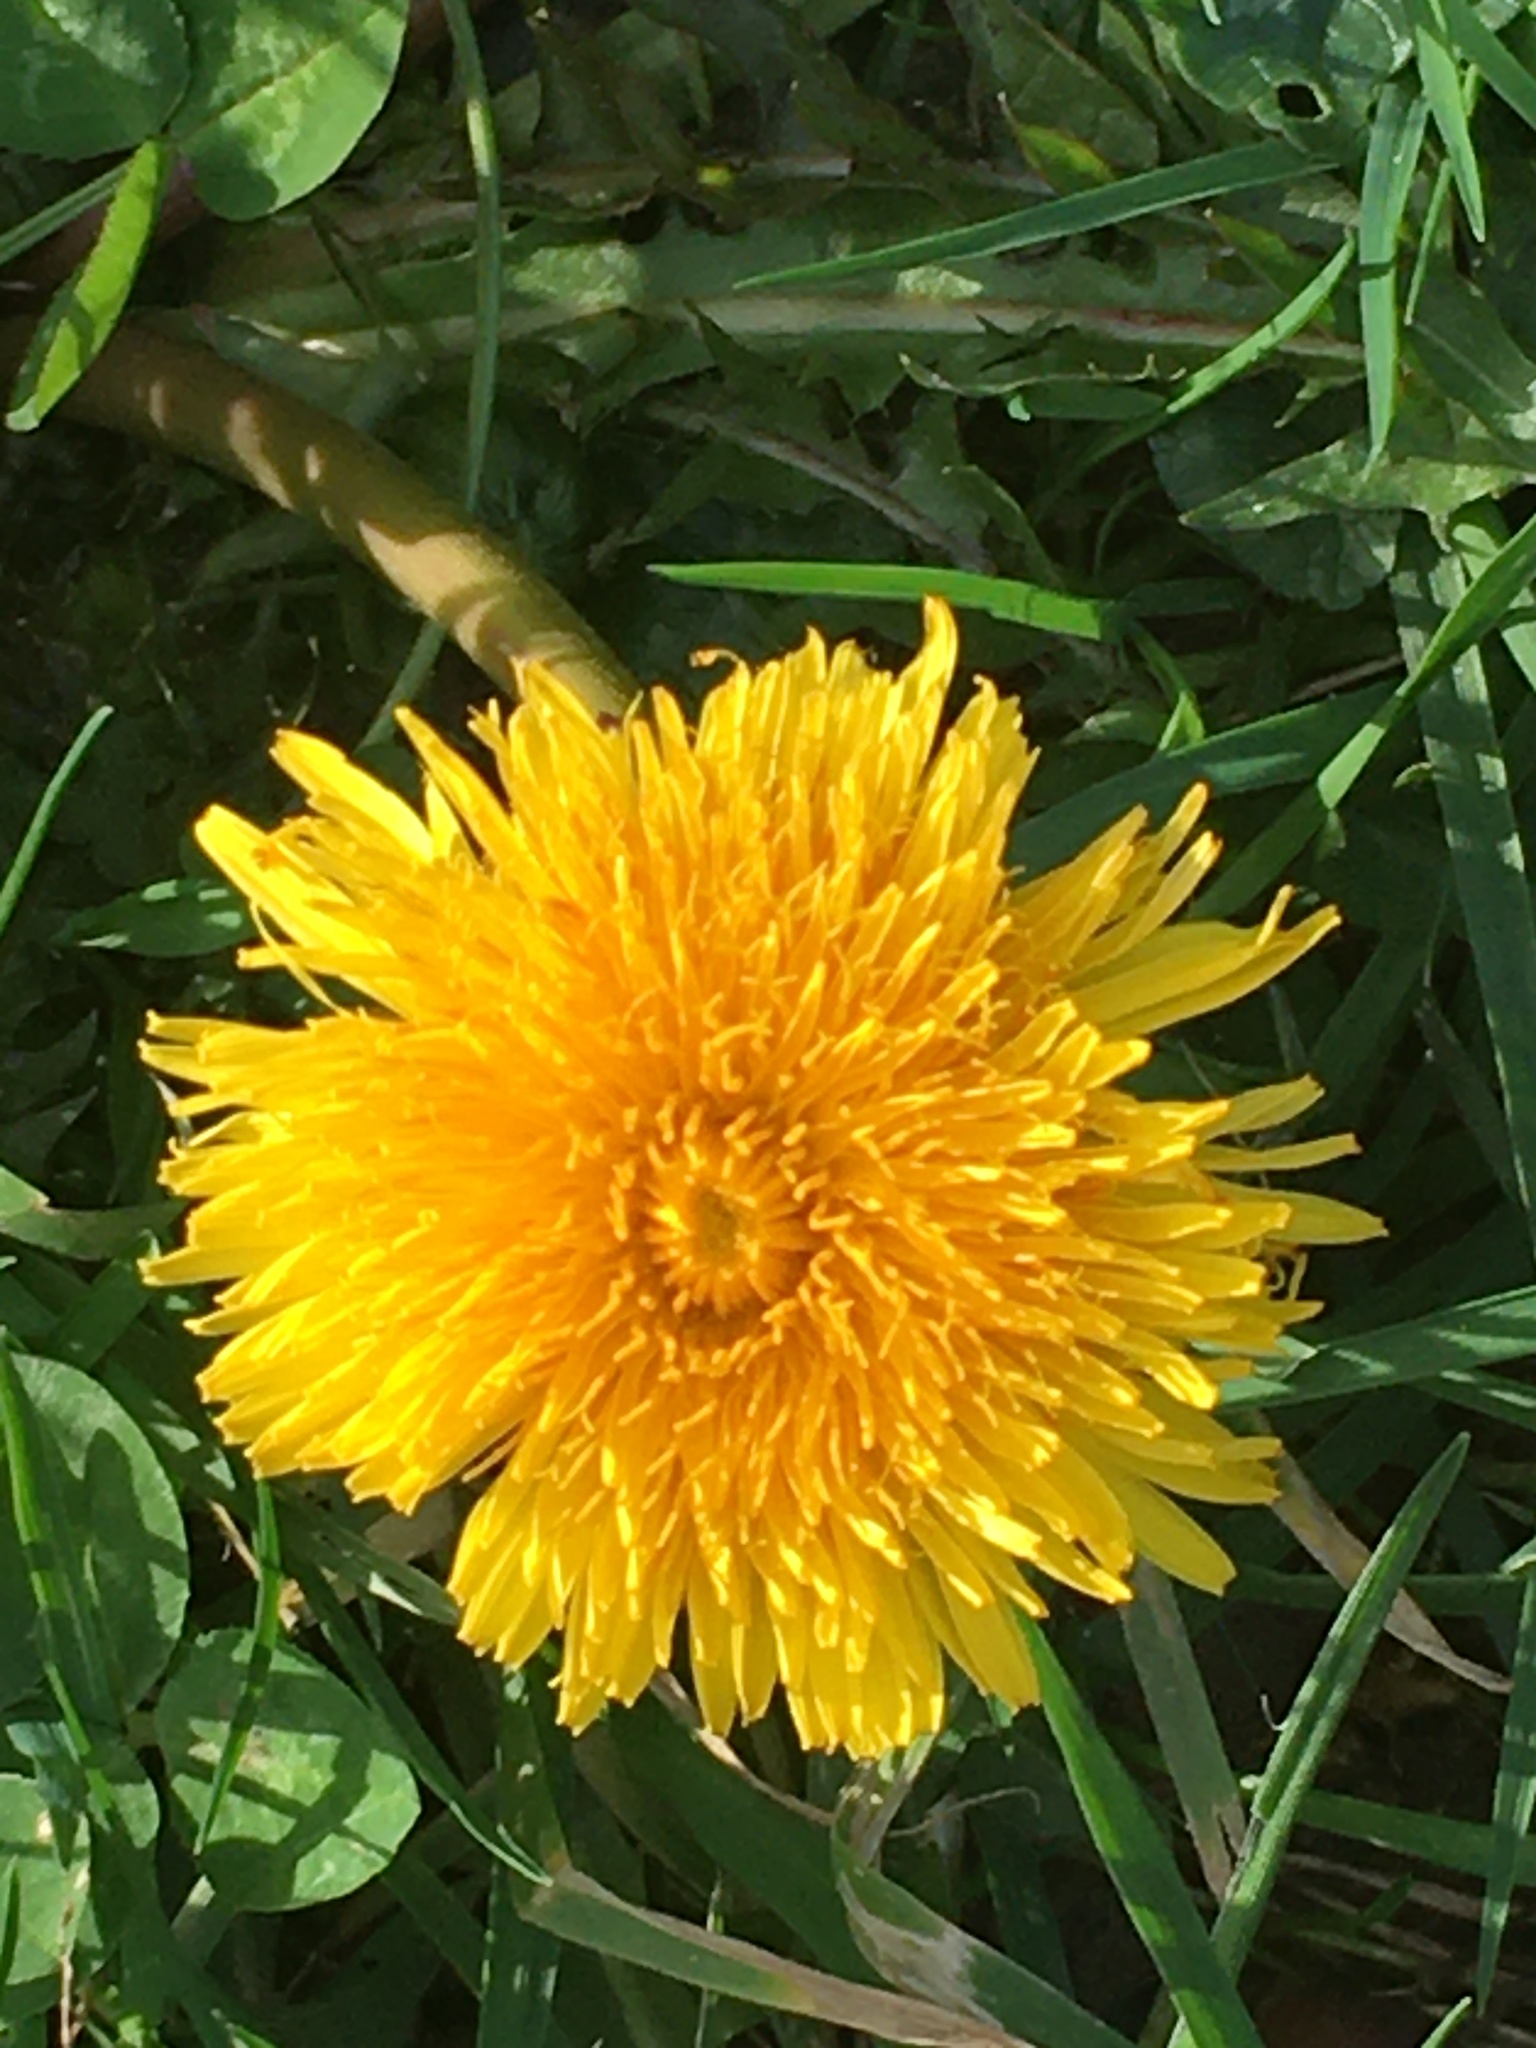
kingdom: Plantae
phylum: Tracheophyta
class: Magnoliopsida
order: Asterales
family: Asteraceae
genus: Taraxacum
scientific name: Taraxacum officinale
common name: Common dandelion
